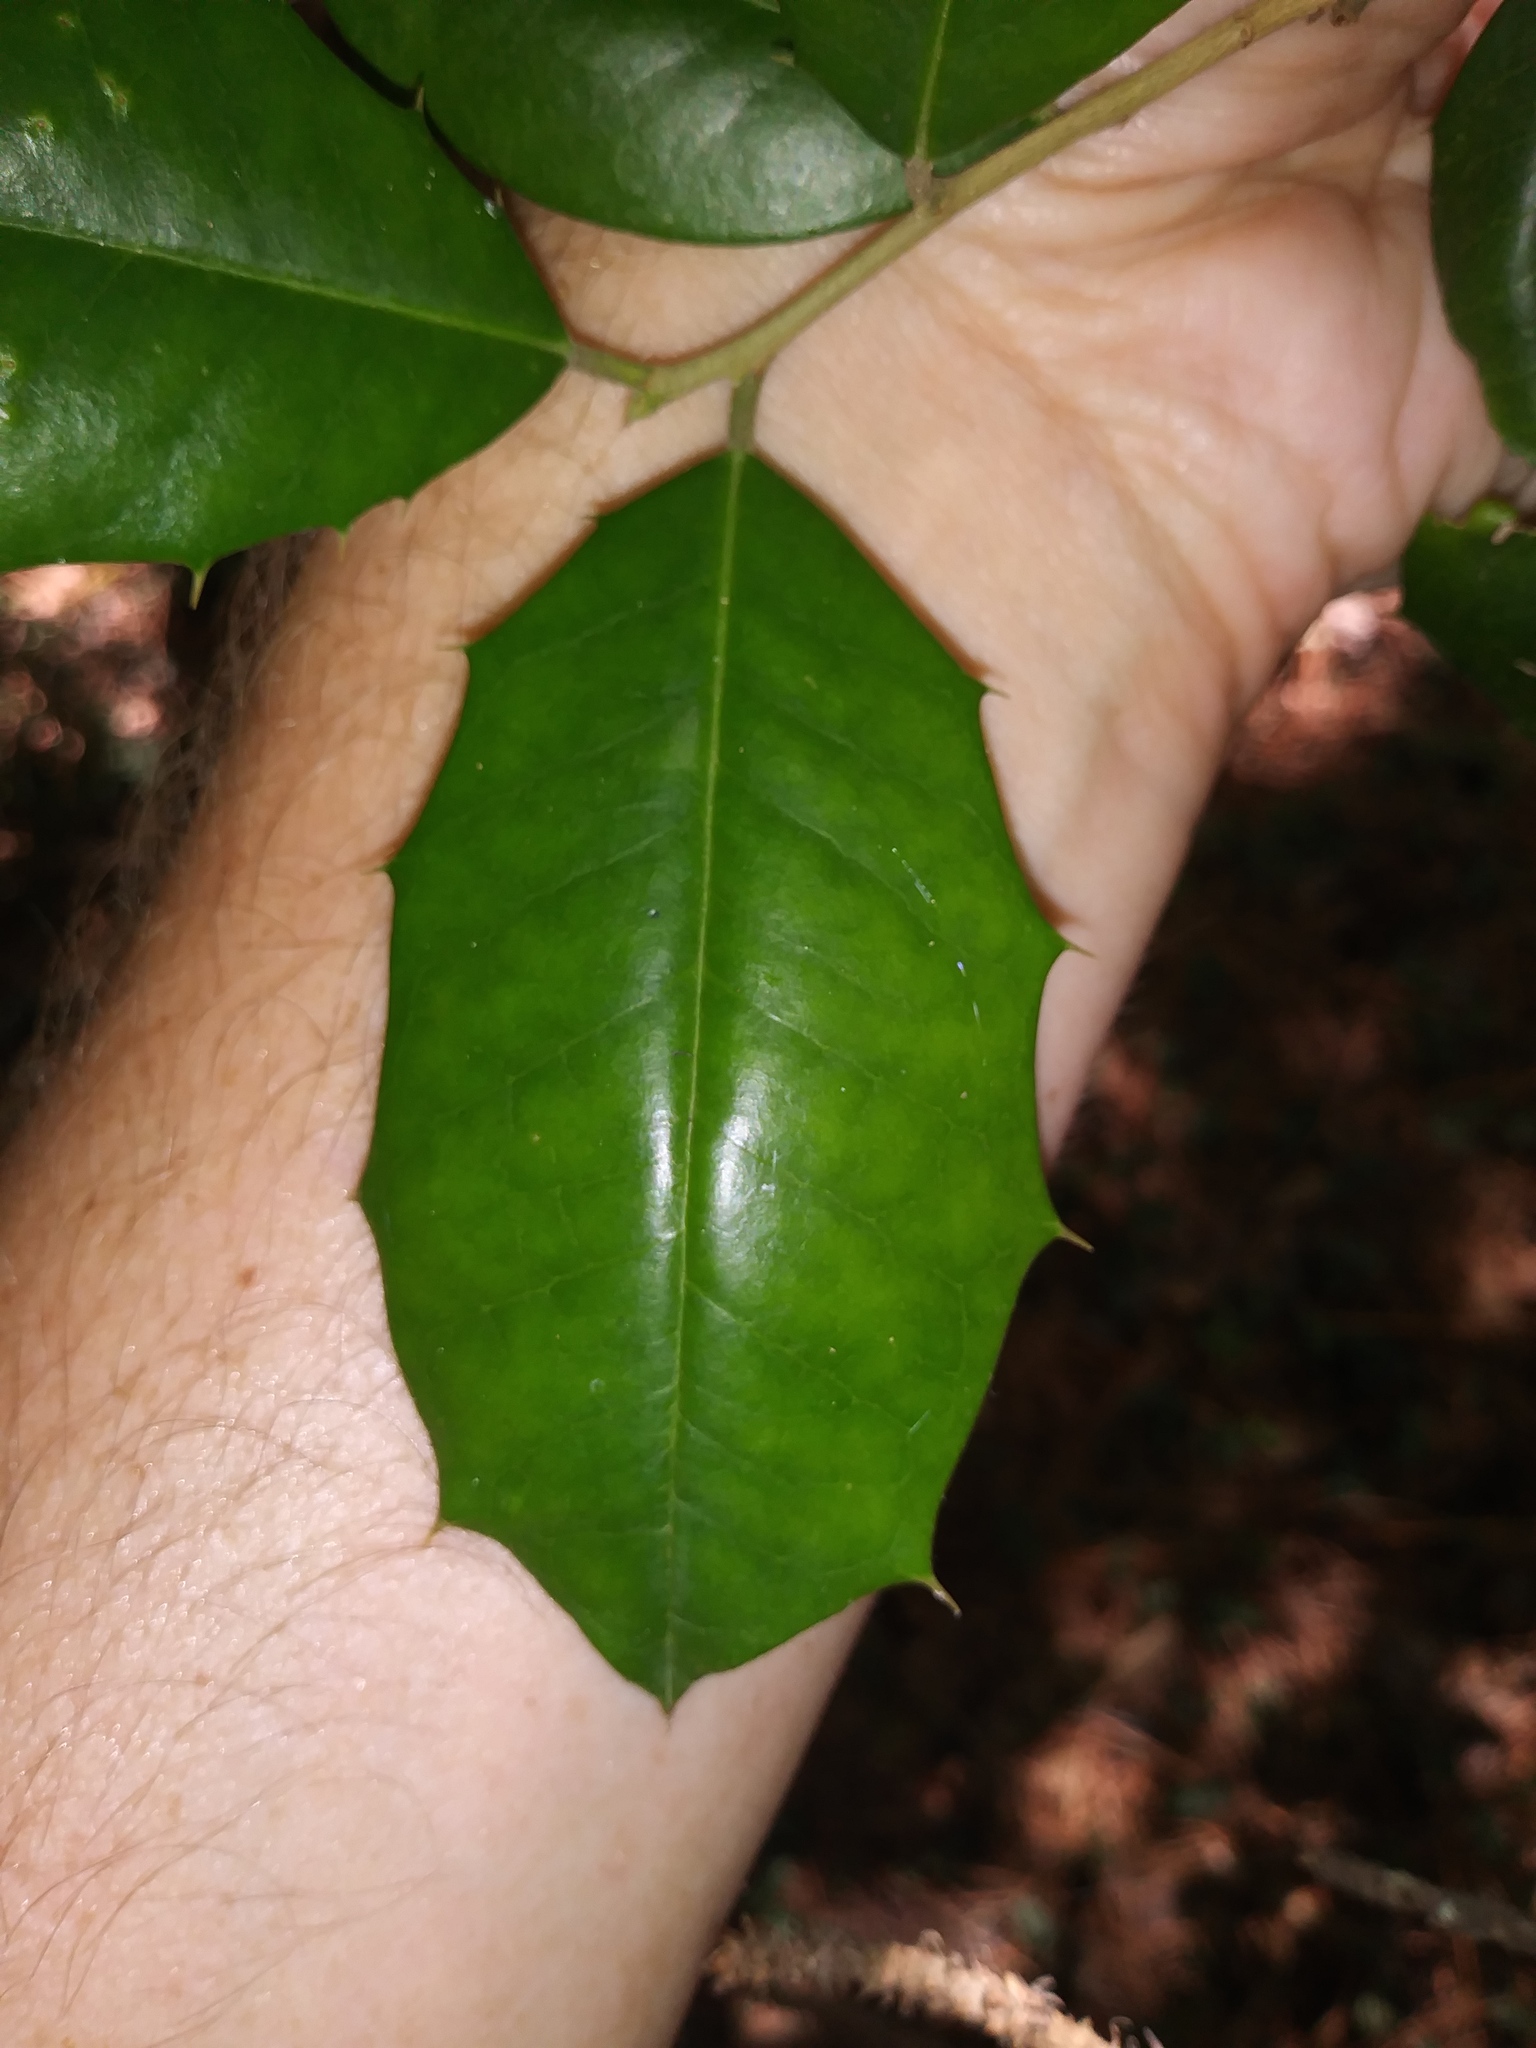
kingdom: Plantae
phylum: Tracheophyta
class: Magnoliopsida
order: Aquifoliales
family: Aquifoliaceae
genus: Ilex
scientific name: Ilex opaca
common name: American holly
